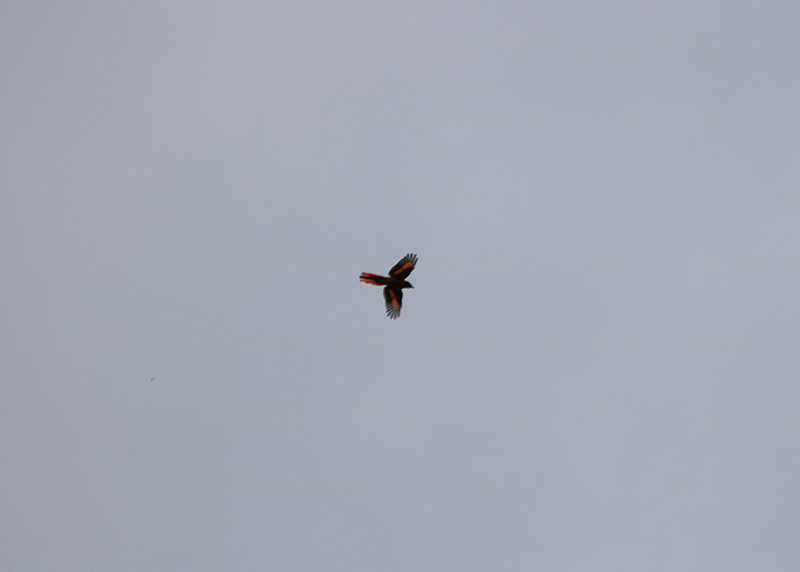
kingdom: Animalia
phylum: Chordata
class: Aves
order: Passeriformes
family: Campephagidae
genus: Pericrocotus
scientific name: Pericrocotus speciosus
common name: Scarlet minivet
